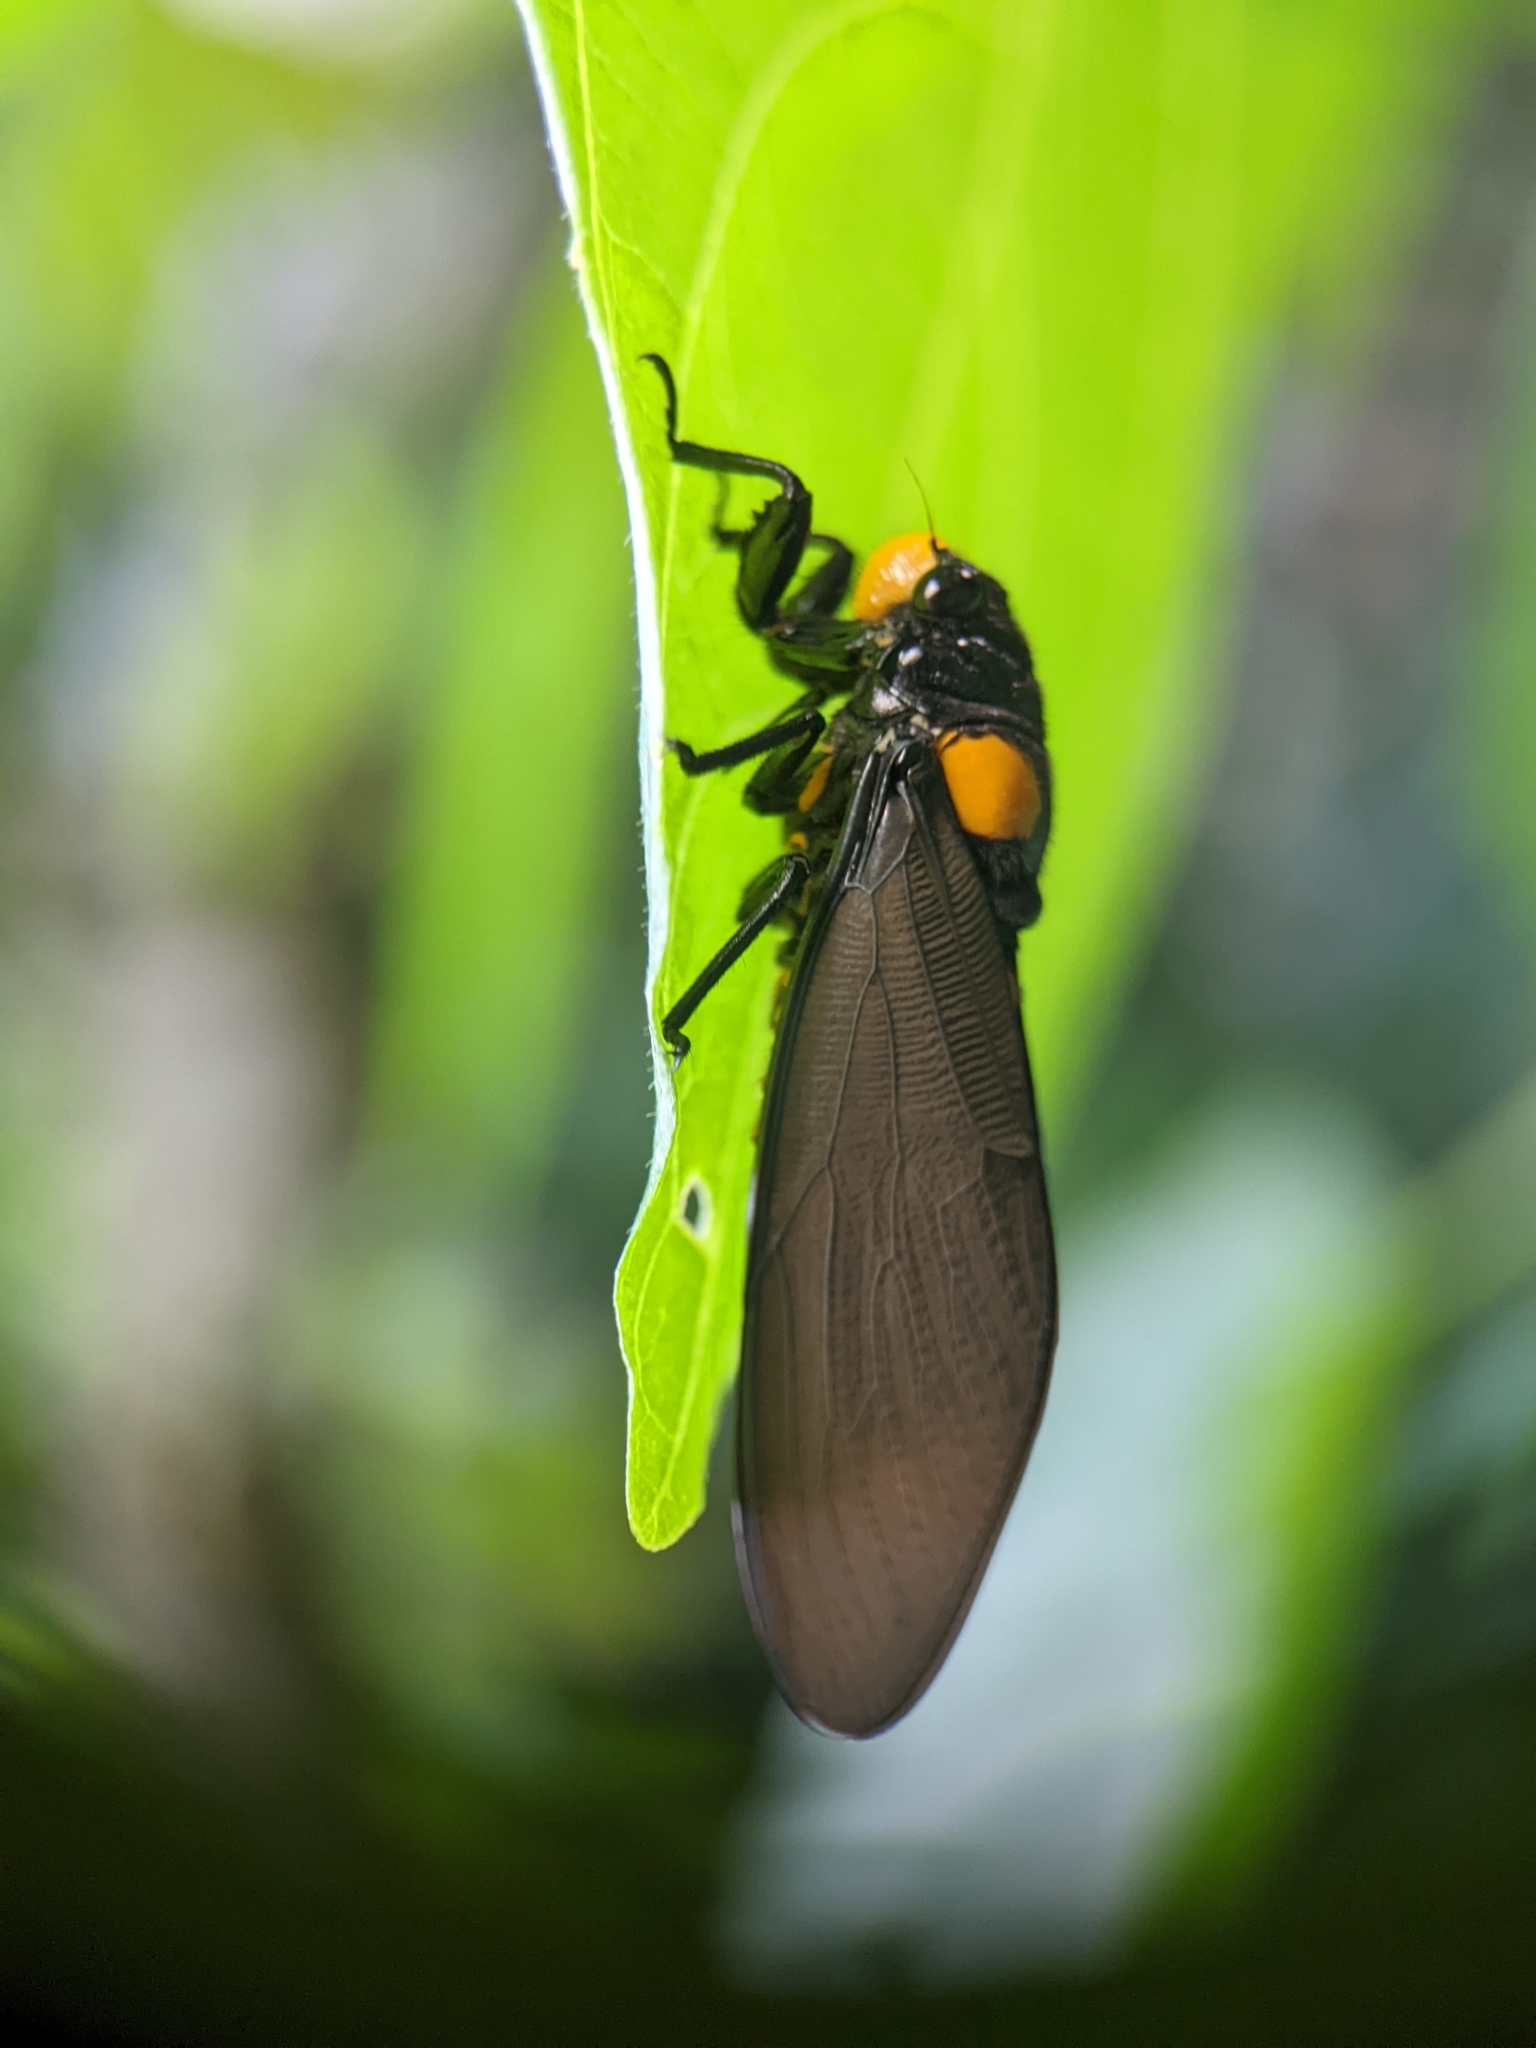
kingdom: Animalia
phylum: Arthropoda
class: Insecta
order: Hemiptera
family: Cicadidae
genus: Huechys
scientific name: Huechys fusca
